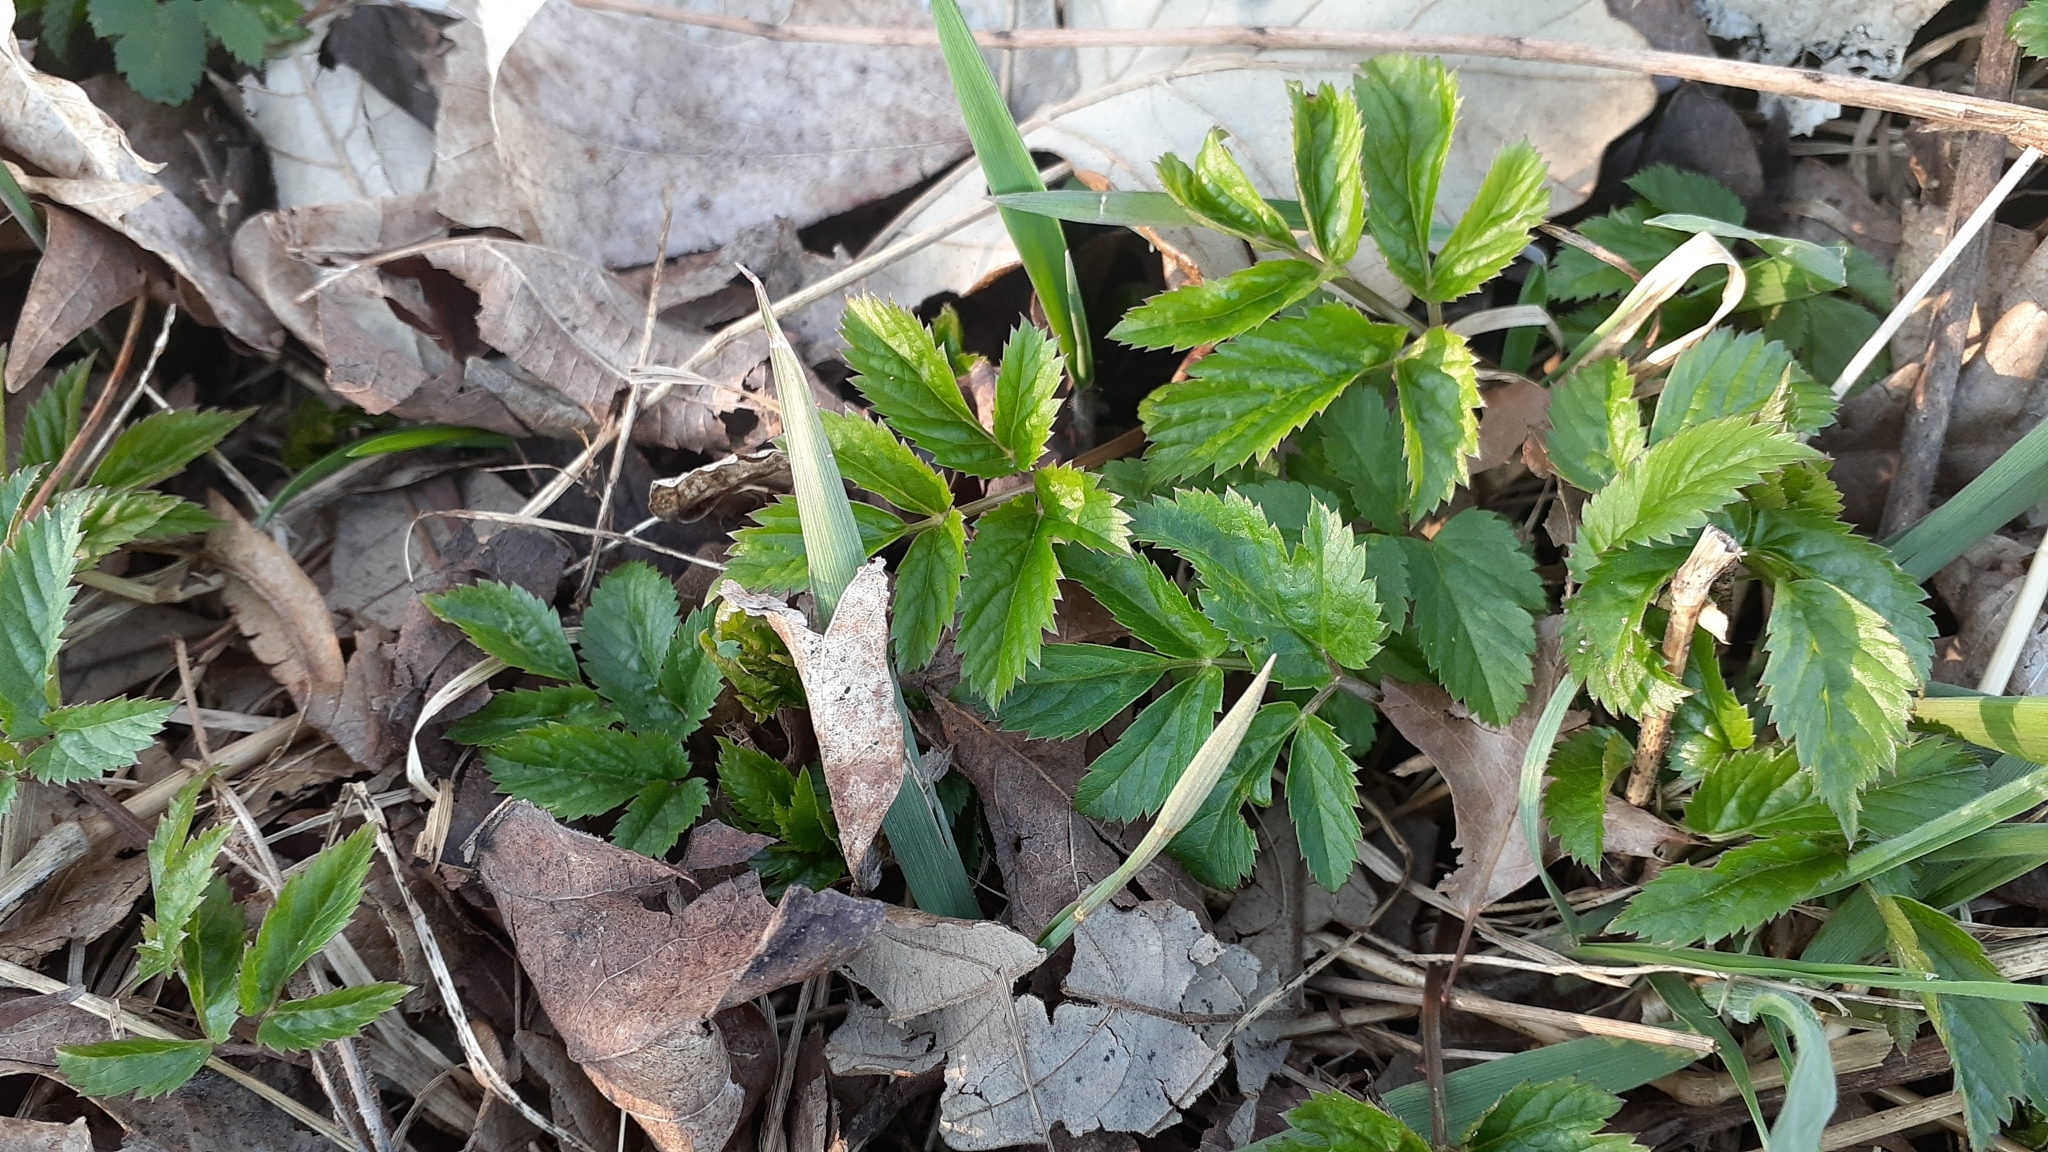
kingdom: Plantae
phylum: Tracheophyta
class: Magnoliopsida
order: Apiales
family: Apiaceae
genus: Aegopodium
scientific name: Aegopodium podagraria
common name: Ground-elder
